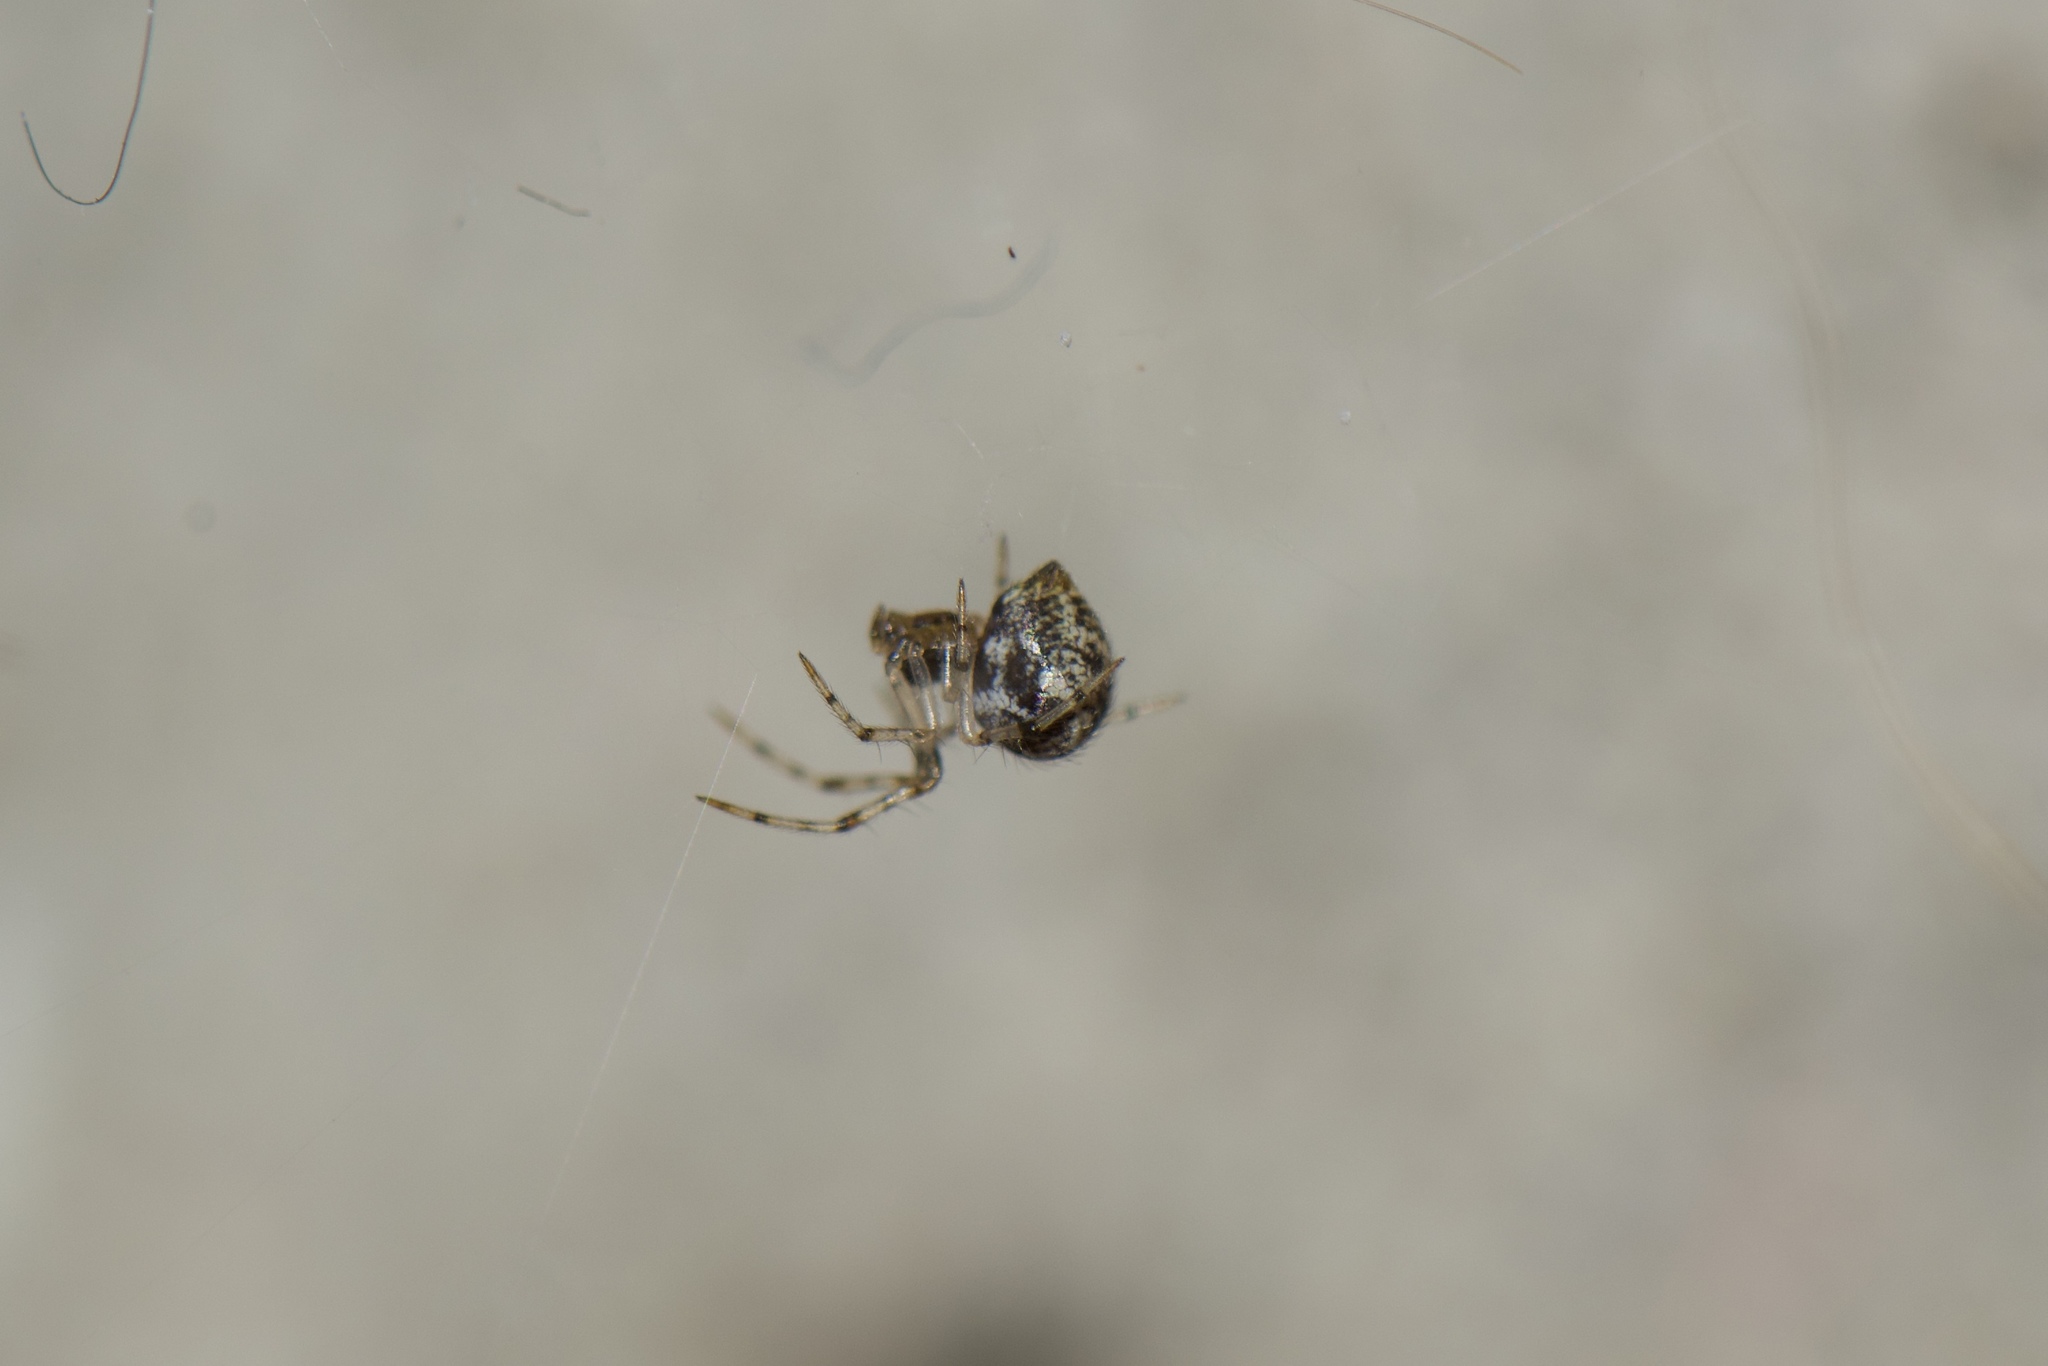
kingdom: Animalia
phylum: Arthropoda
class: Arachnida
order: Araneae
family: Theridiidae
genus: Parasteatoda
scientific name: Parasteatoda tepidariorum
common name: Common house spider
